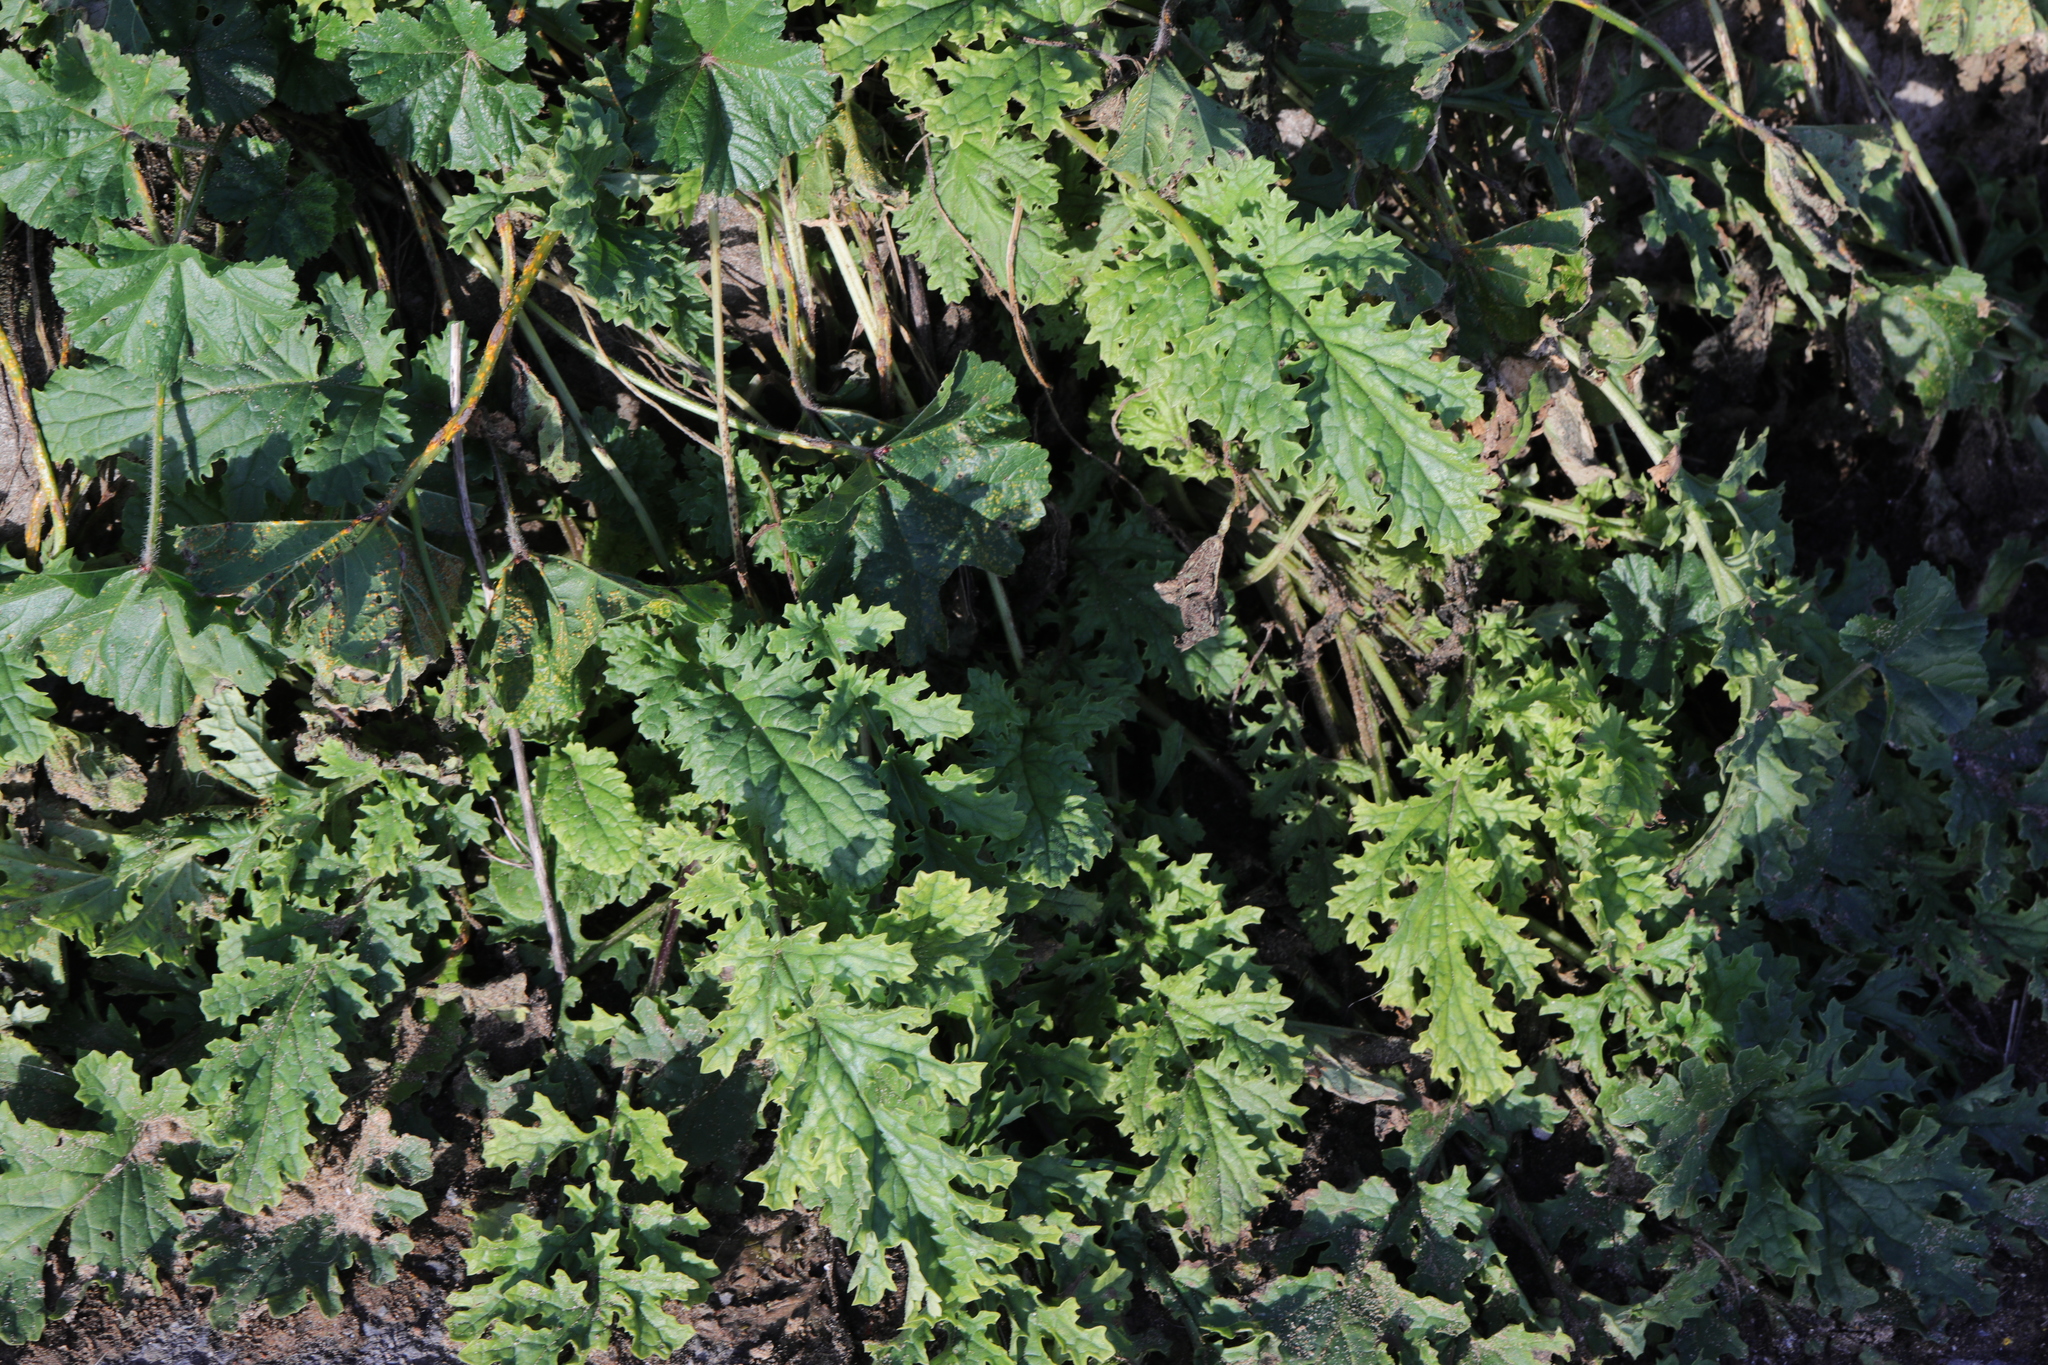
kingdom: Plantae
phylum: Tracheophyta
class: Magnoliopsida
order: Asterales
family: Asteraceae
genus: Jacobaea
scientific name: Jacobaea vulgaris
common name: Stinking willie
